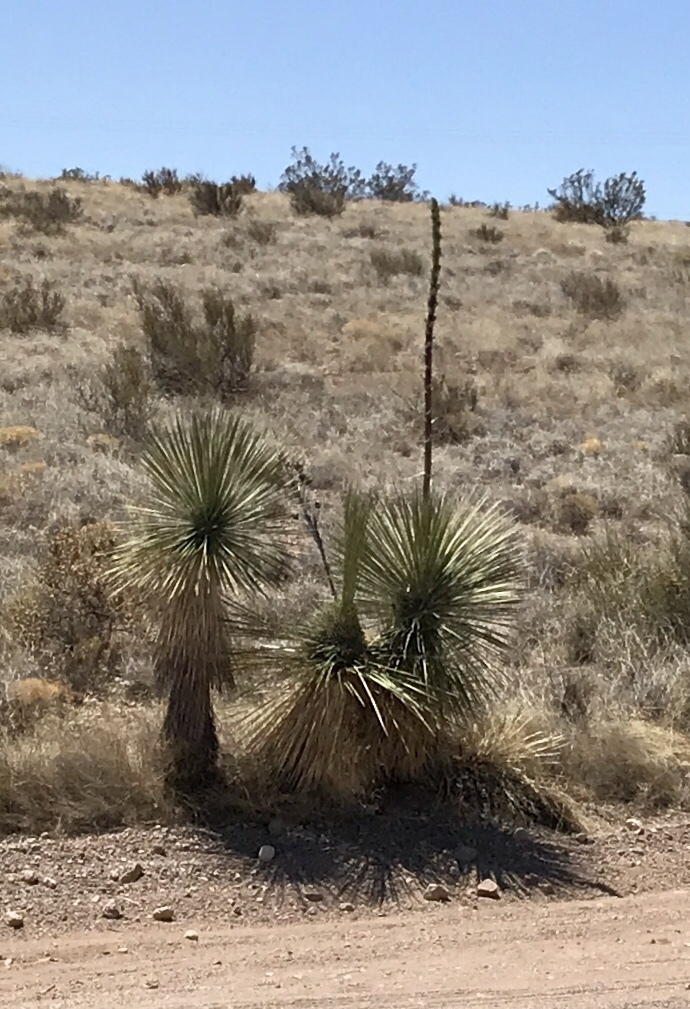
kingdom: Plantae
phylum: Tracheophyta
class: Liliopsida
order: Asparagales
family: Asparagaceae
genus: Yucca
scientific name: Yucca elata
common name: Palmella
